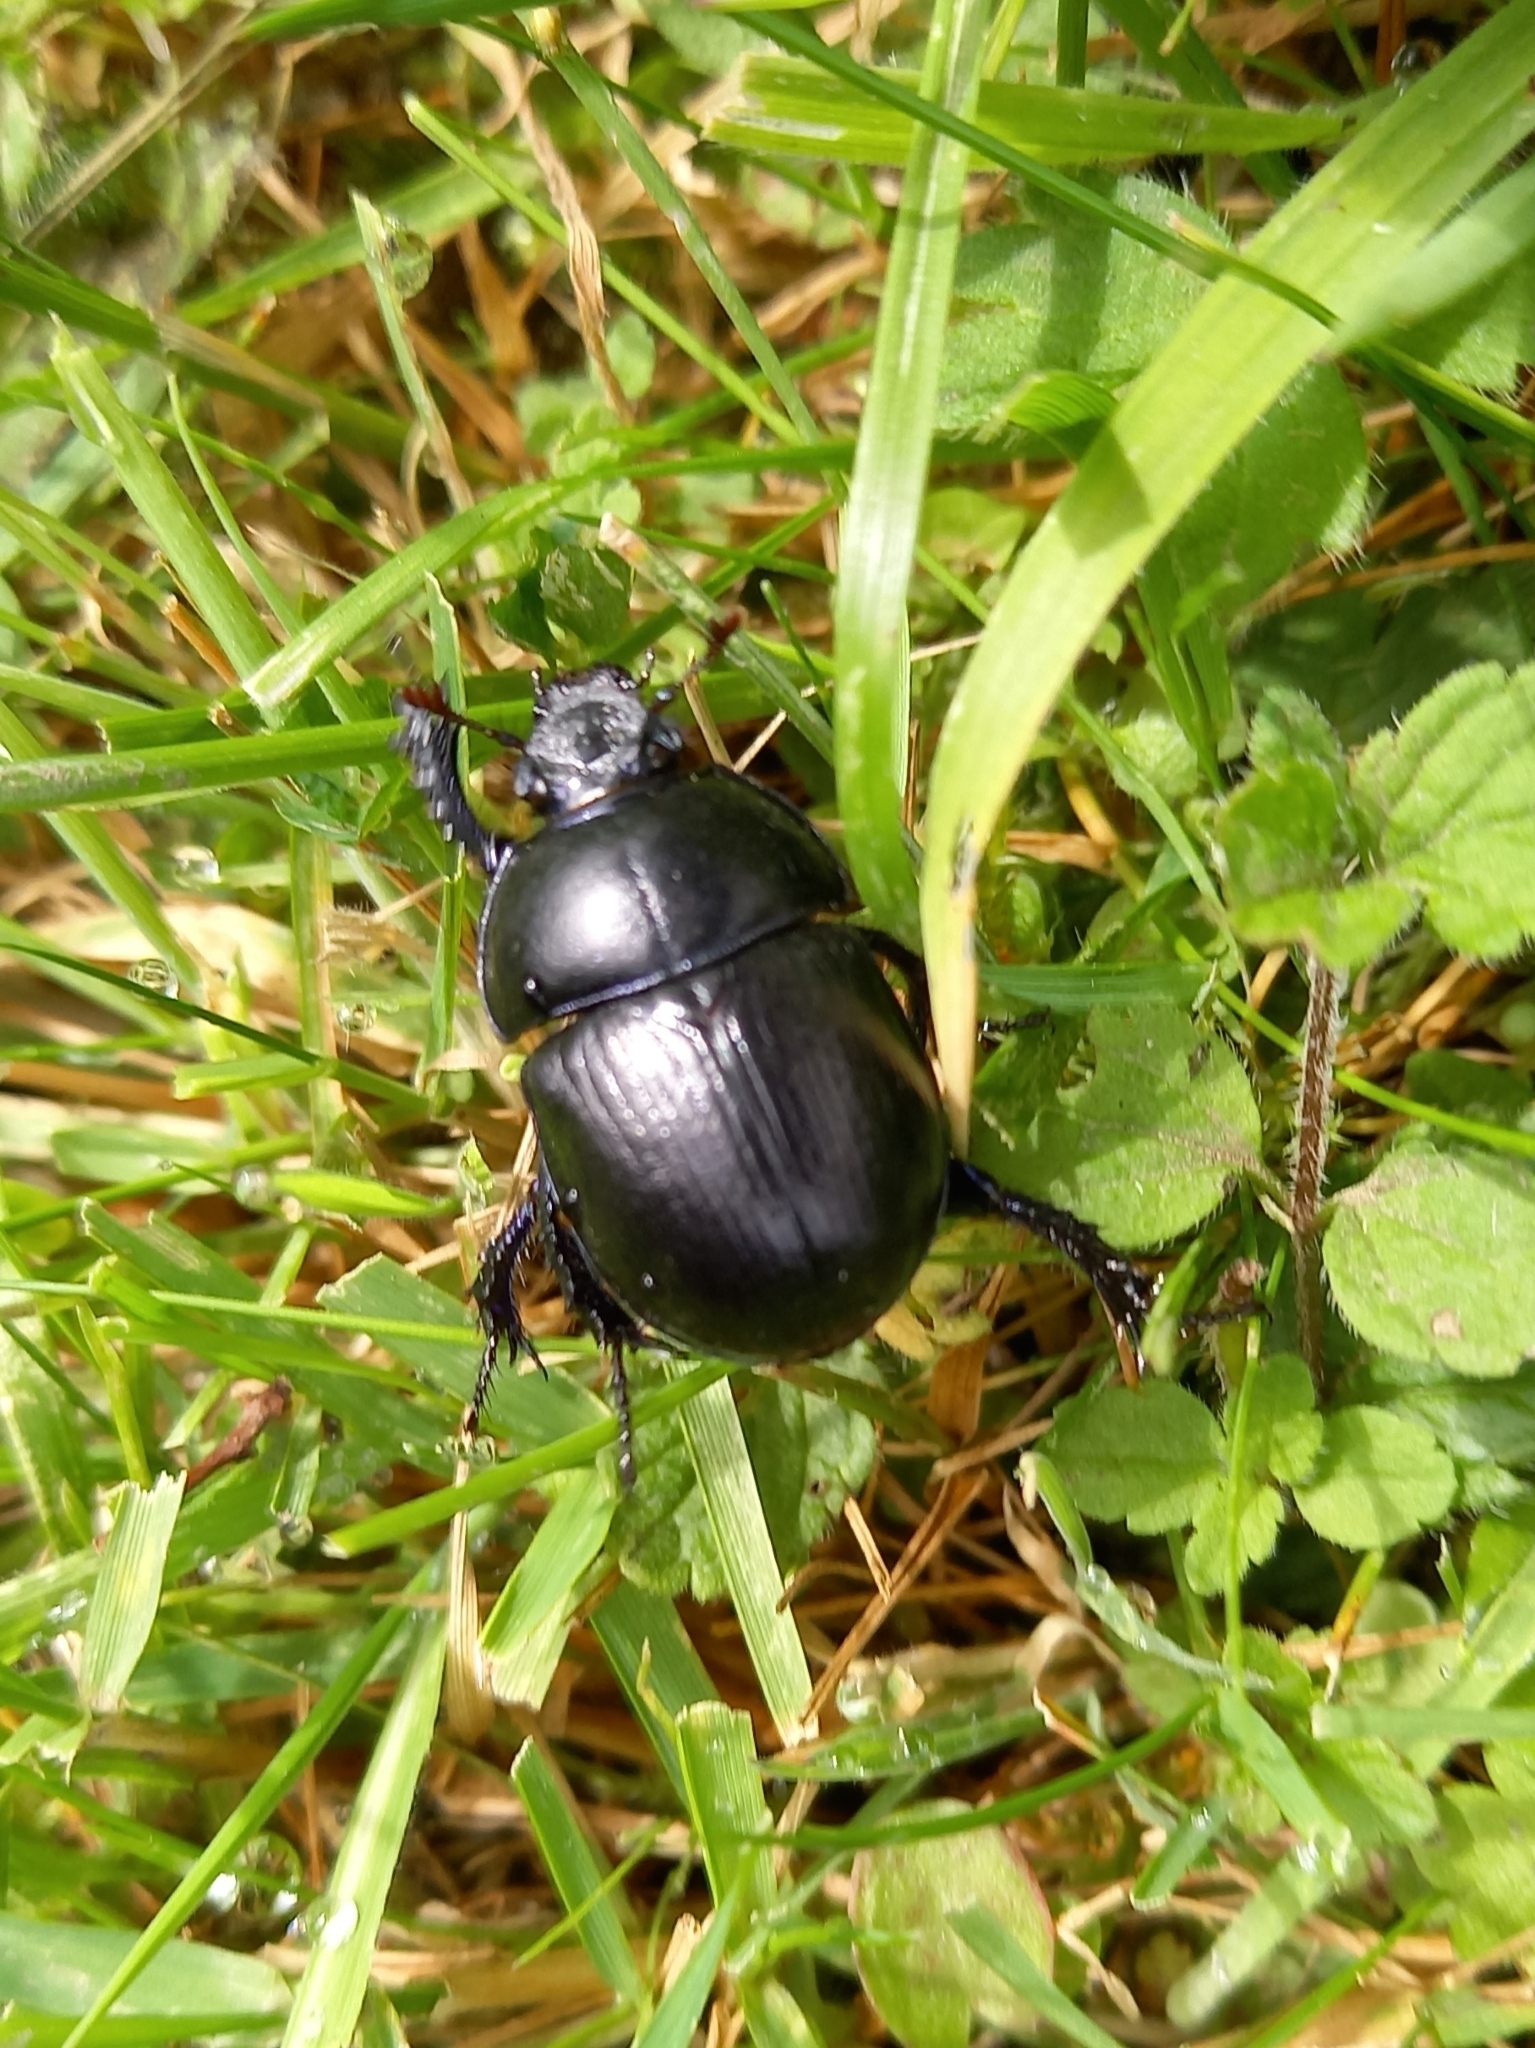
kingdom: Animalia
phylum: Arthropoda
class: Insecta
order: Coleoptera
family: Geotrupidae
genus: Anoplotrupes
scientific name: Anoplotrupes stercorosus
